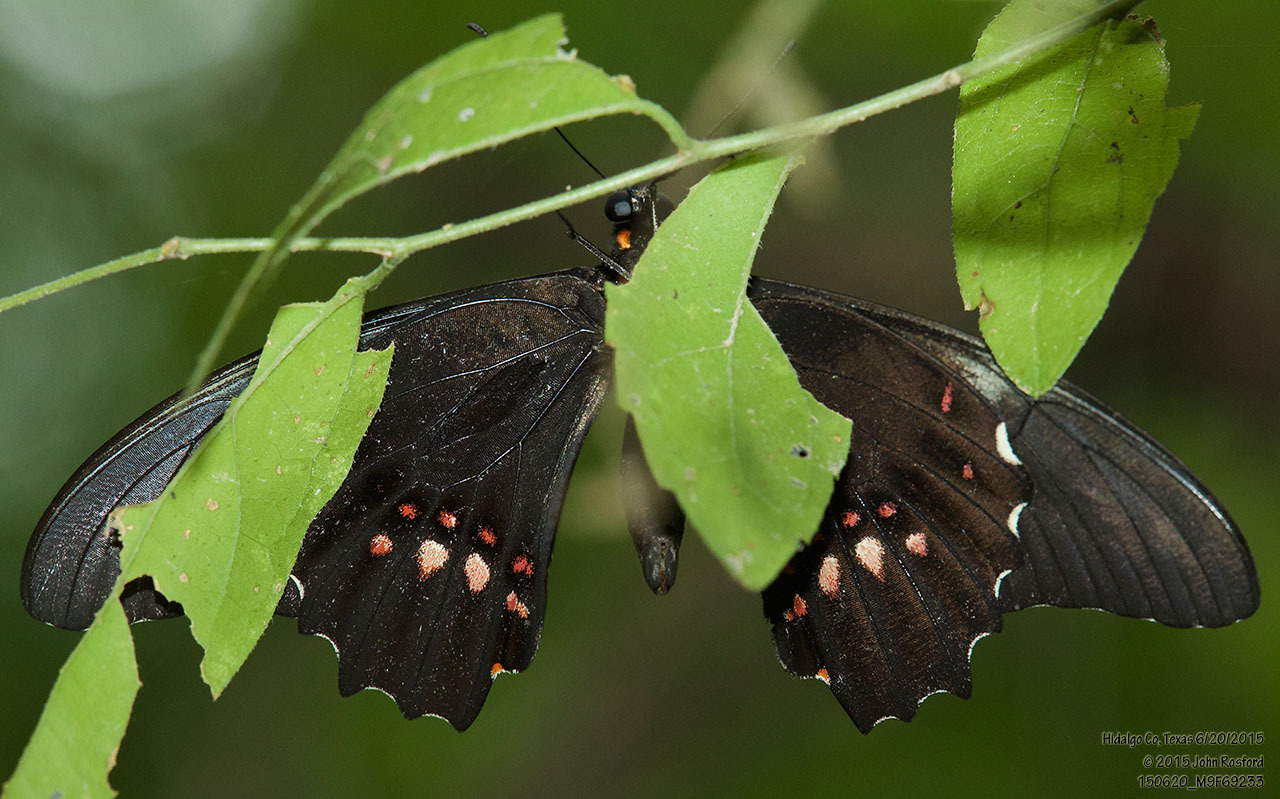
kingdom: Animalia
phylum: Arthropoda
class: Insecta
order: Lepidoptera
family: Papilionidae
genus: Papilio
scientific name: Papilio anchisiades
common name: Idaes swallowtail
